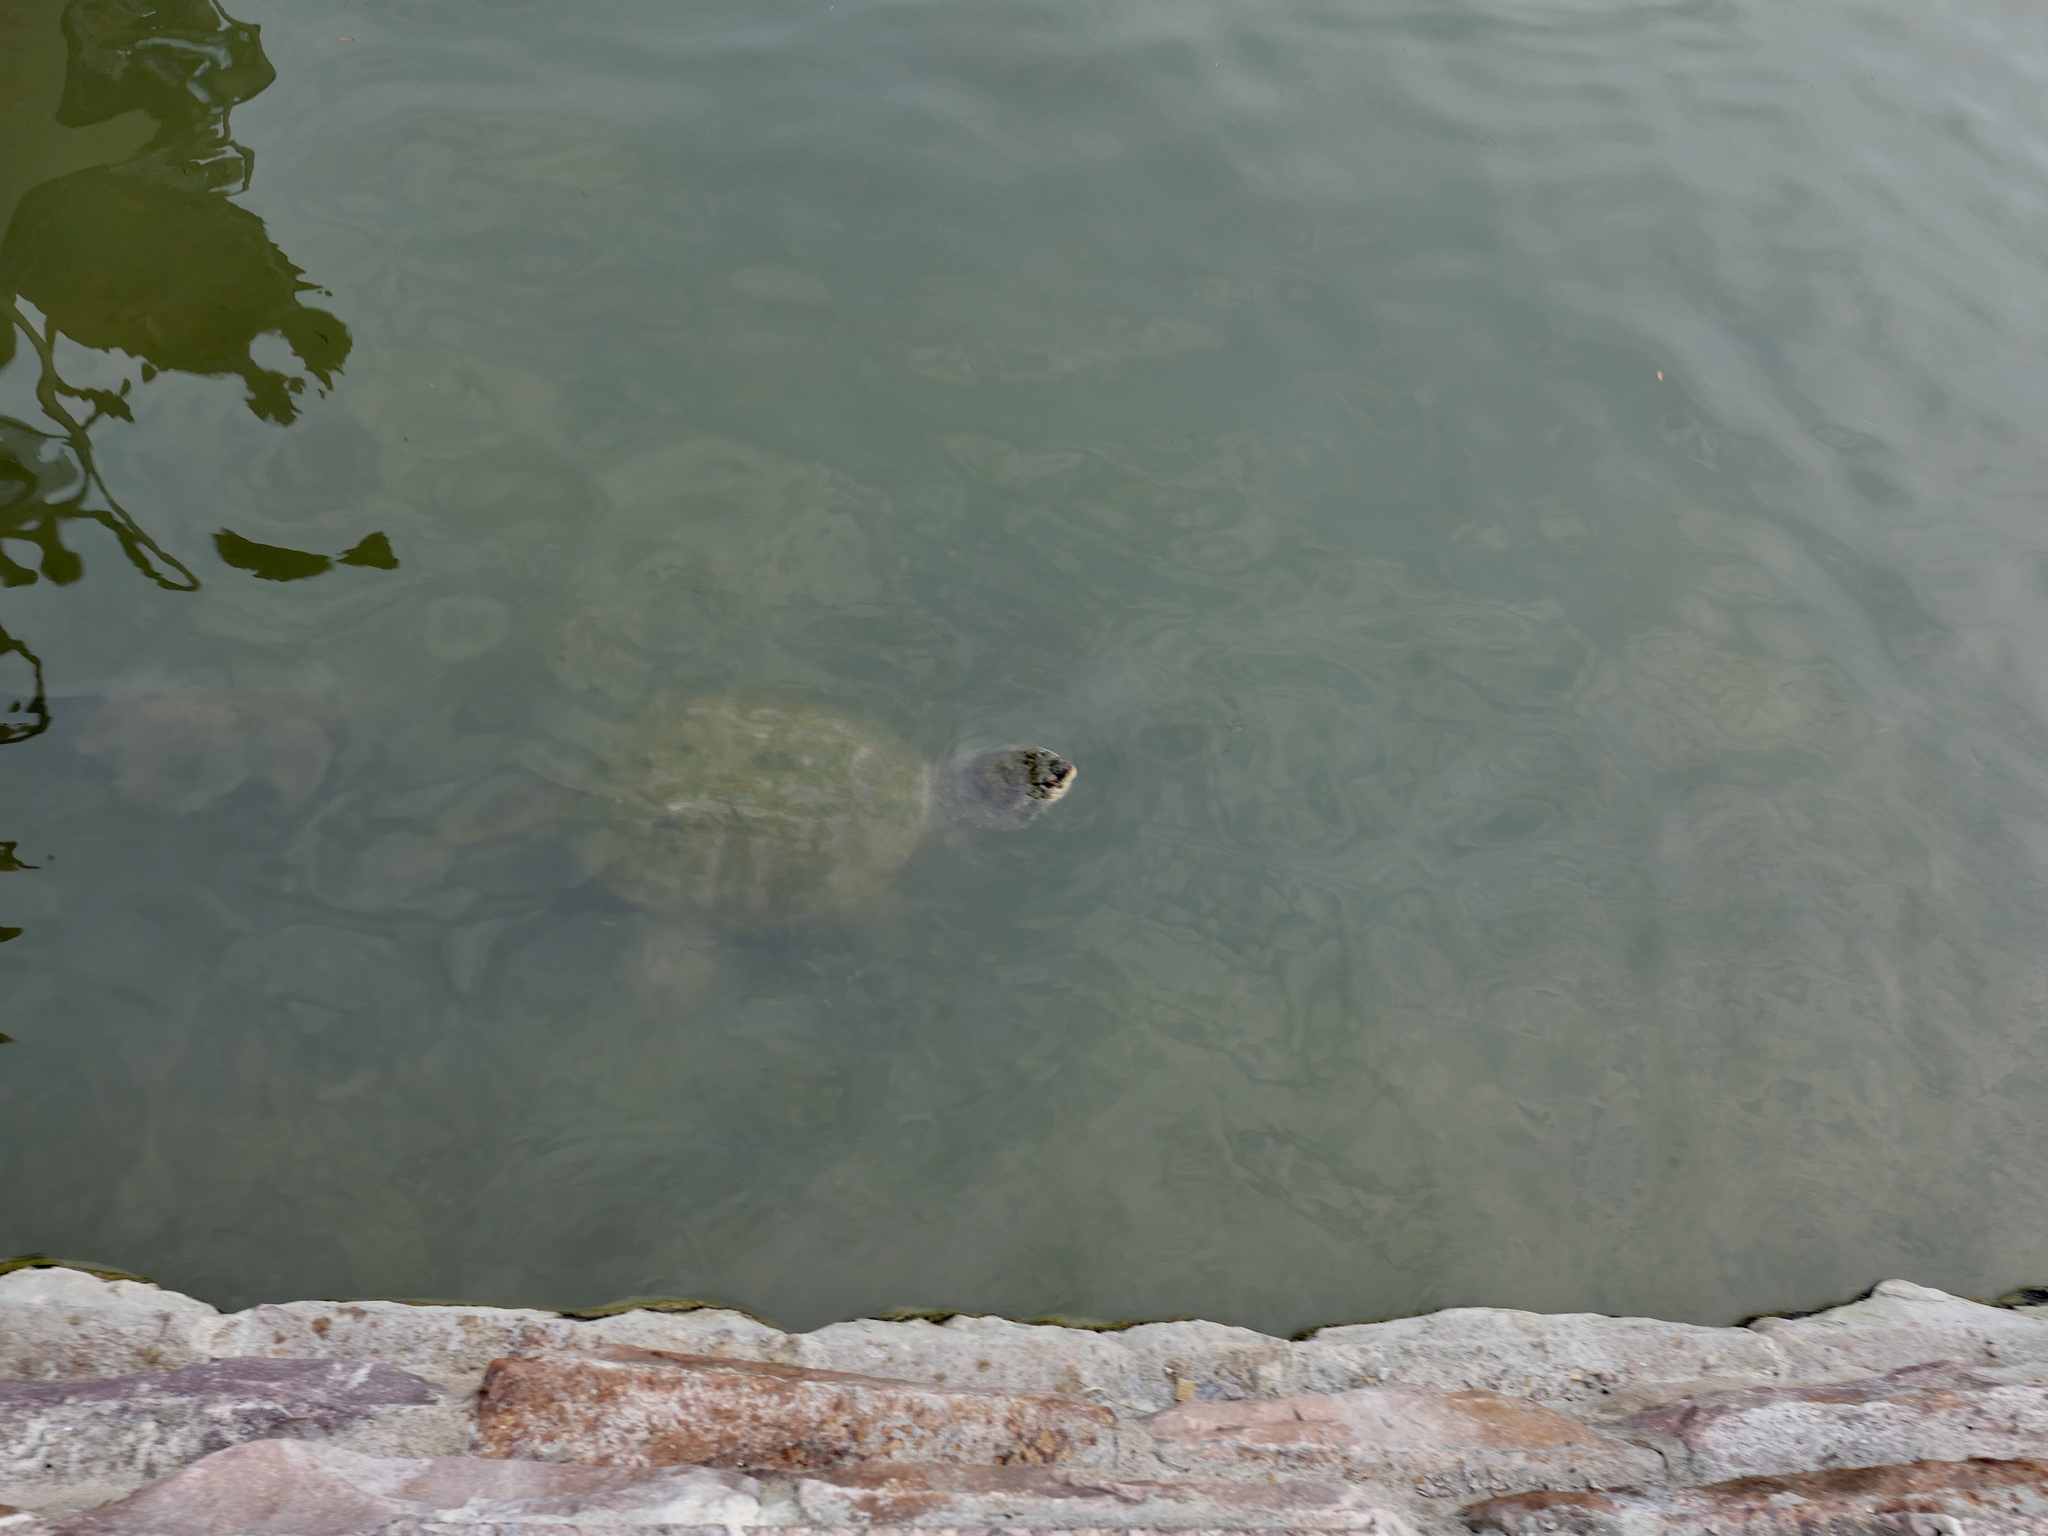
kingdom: Animalia
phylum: Chordata
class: Testudines
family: Chelydridae
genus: Chelydra
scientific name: Chelydra serpentina
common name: Common snapping turtle
